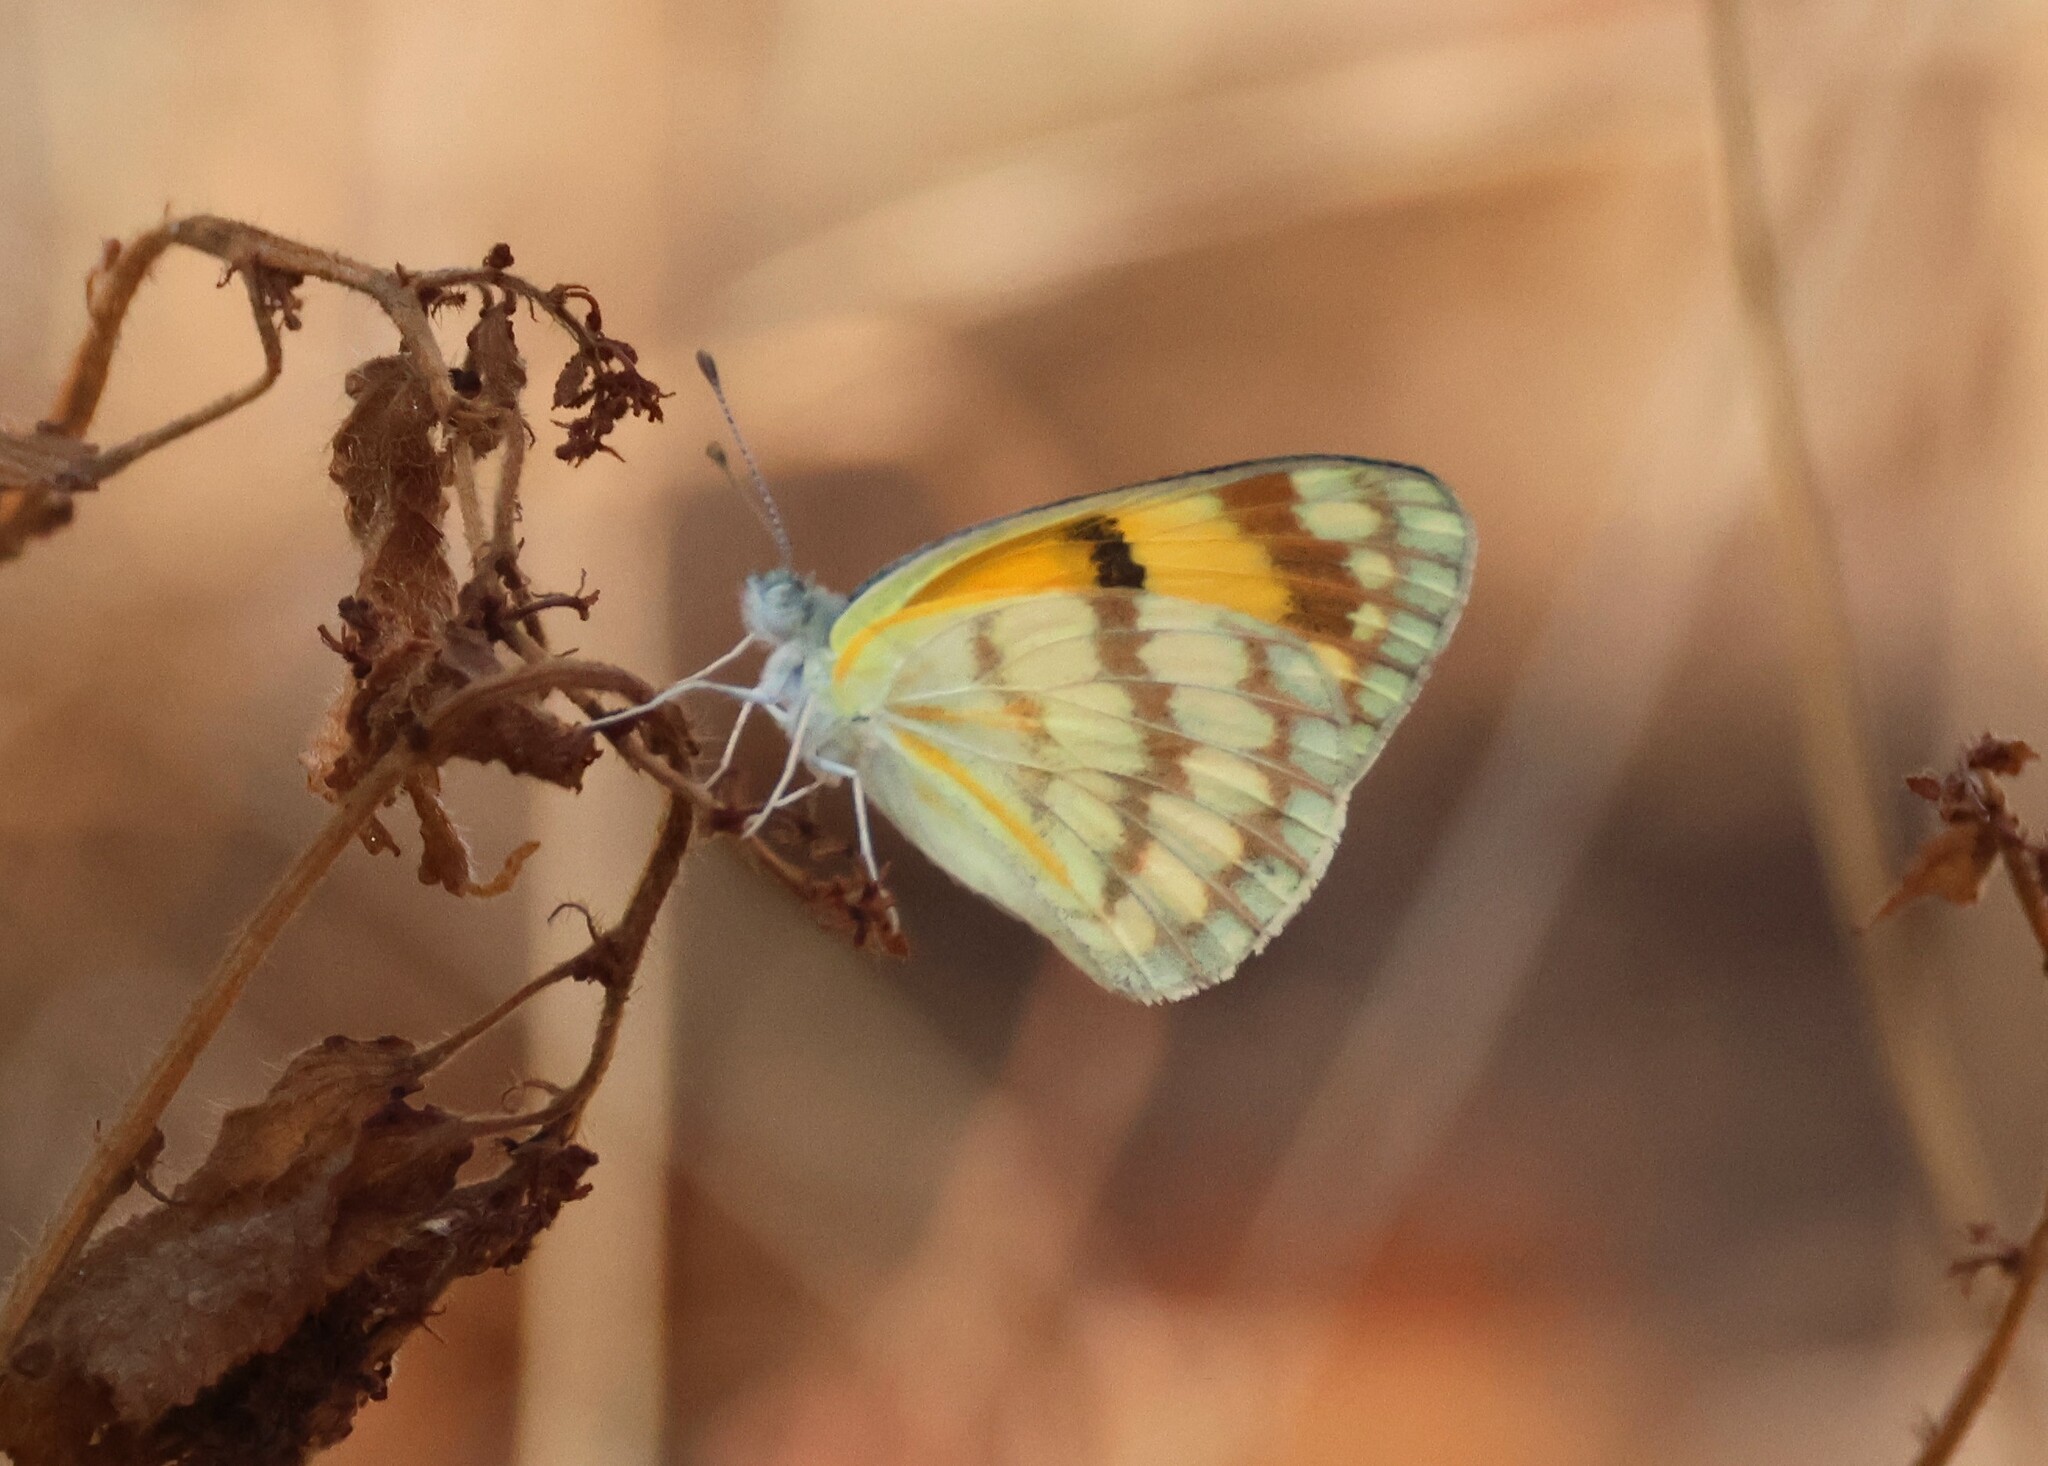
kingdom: Animalia
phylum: Arthropoda
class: Insecta
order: Lepidoptera
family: Pieridae
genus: Colotis
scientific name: Colotis vesta
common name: Veined golden arab
